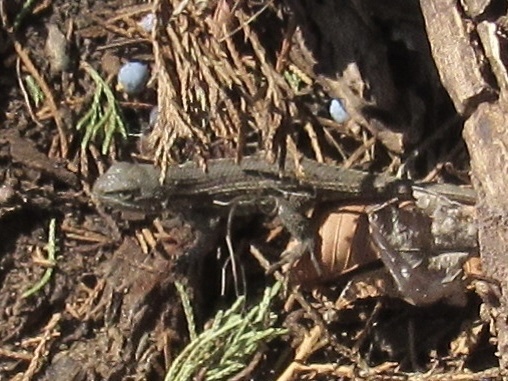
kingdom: Animalia
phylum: Chordata
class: Squamata
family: Phrynosomatidae
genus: Sceloporus
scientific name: Sceloporus consobrinus
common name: Southern prairie lizard
